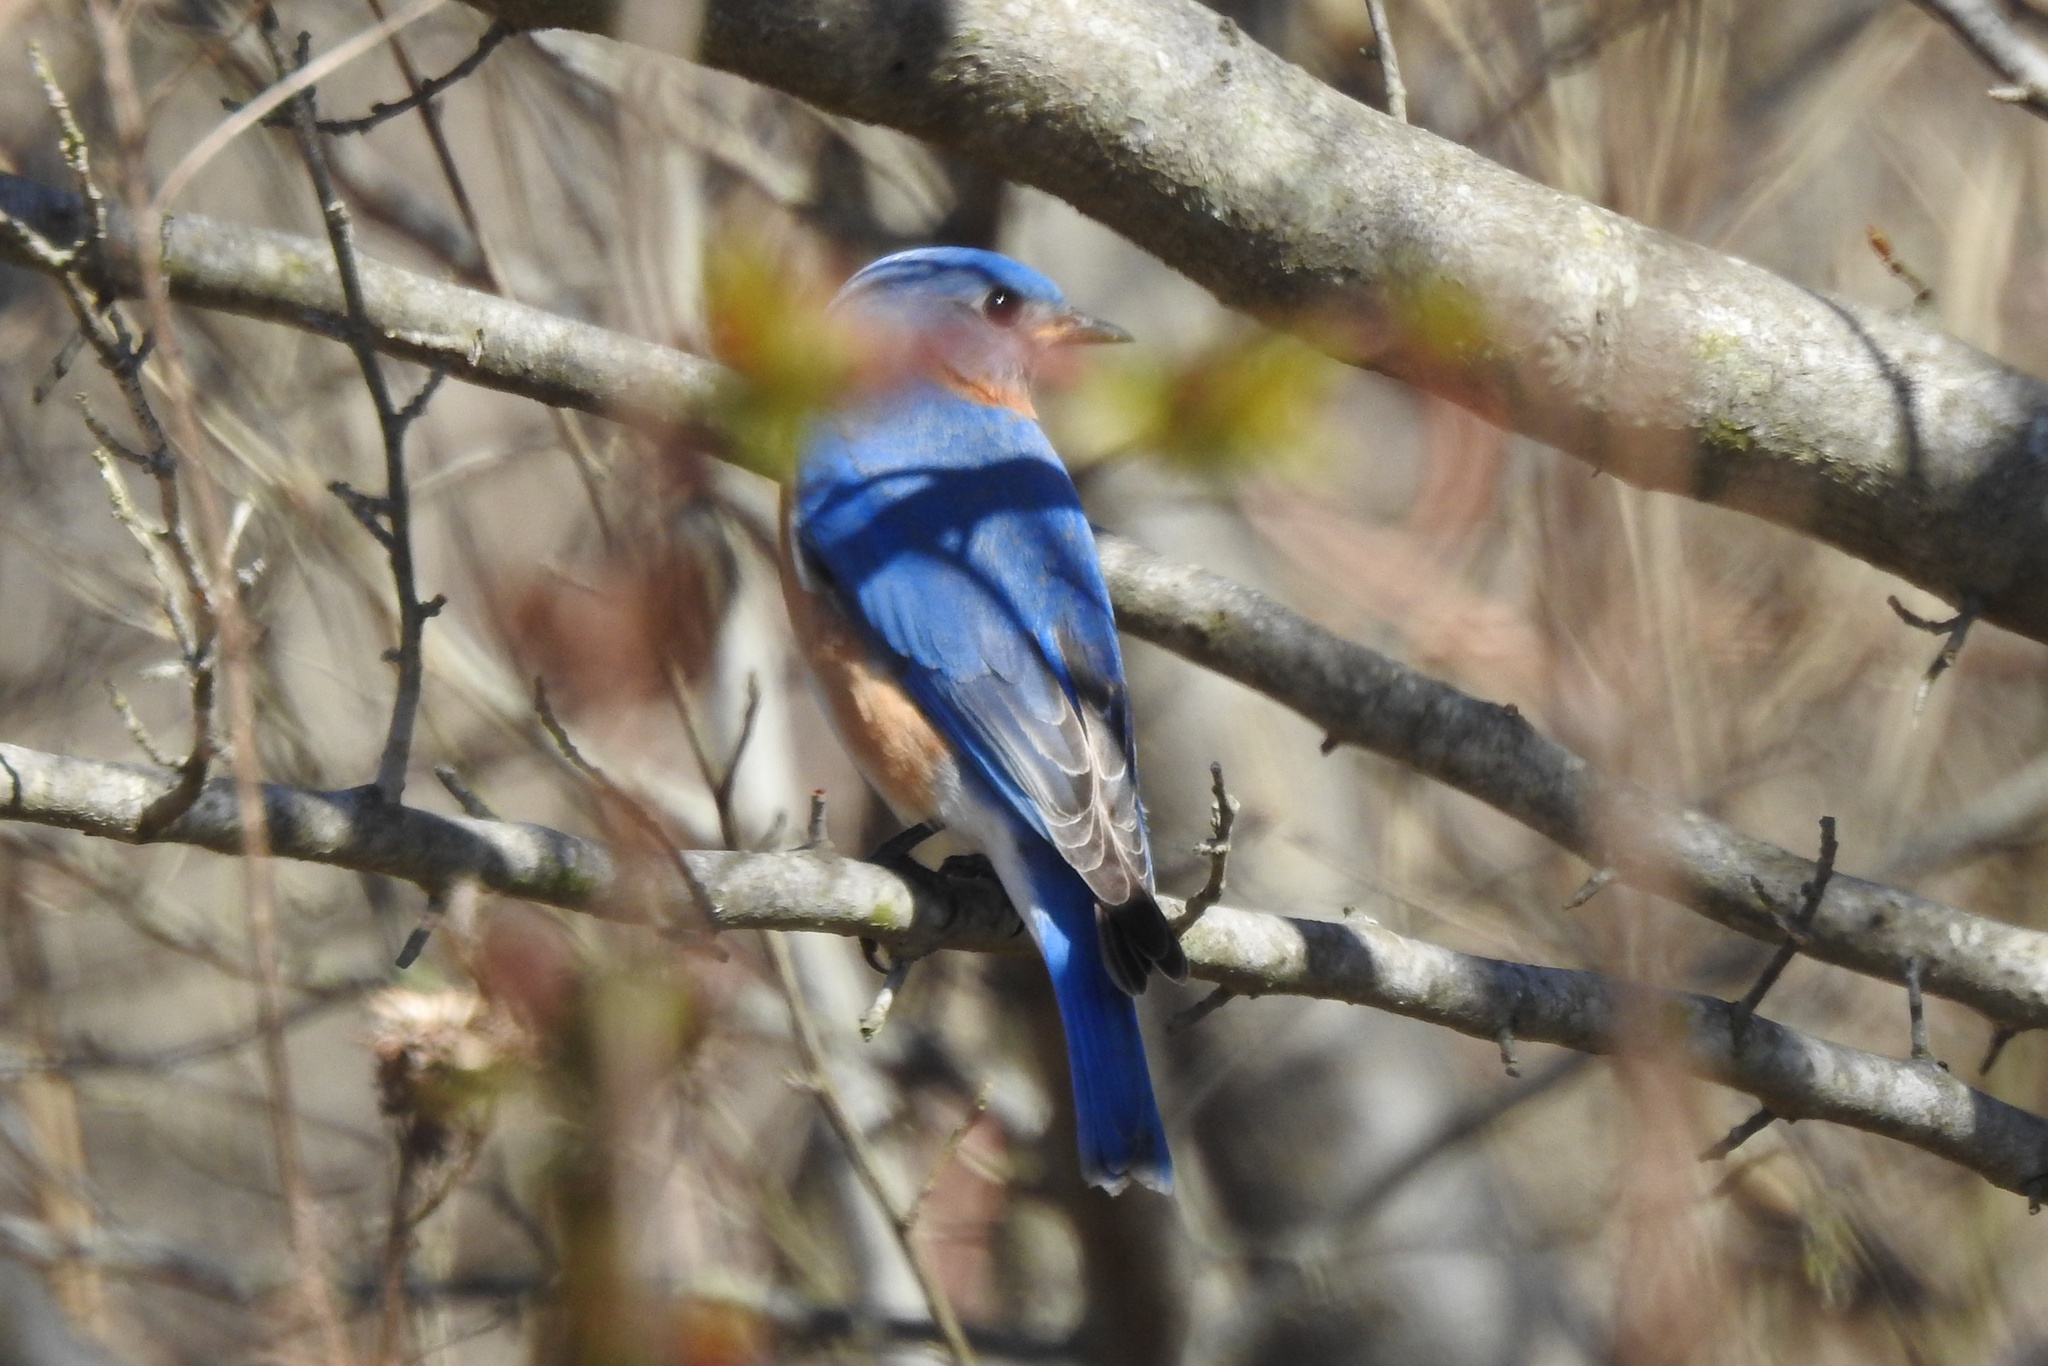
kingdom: Animalia
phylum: Chordata
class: Aves
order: Passeriformes
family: Turdidae
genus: Sialia
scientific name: Sialia sialis
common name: Eastern bluebird
